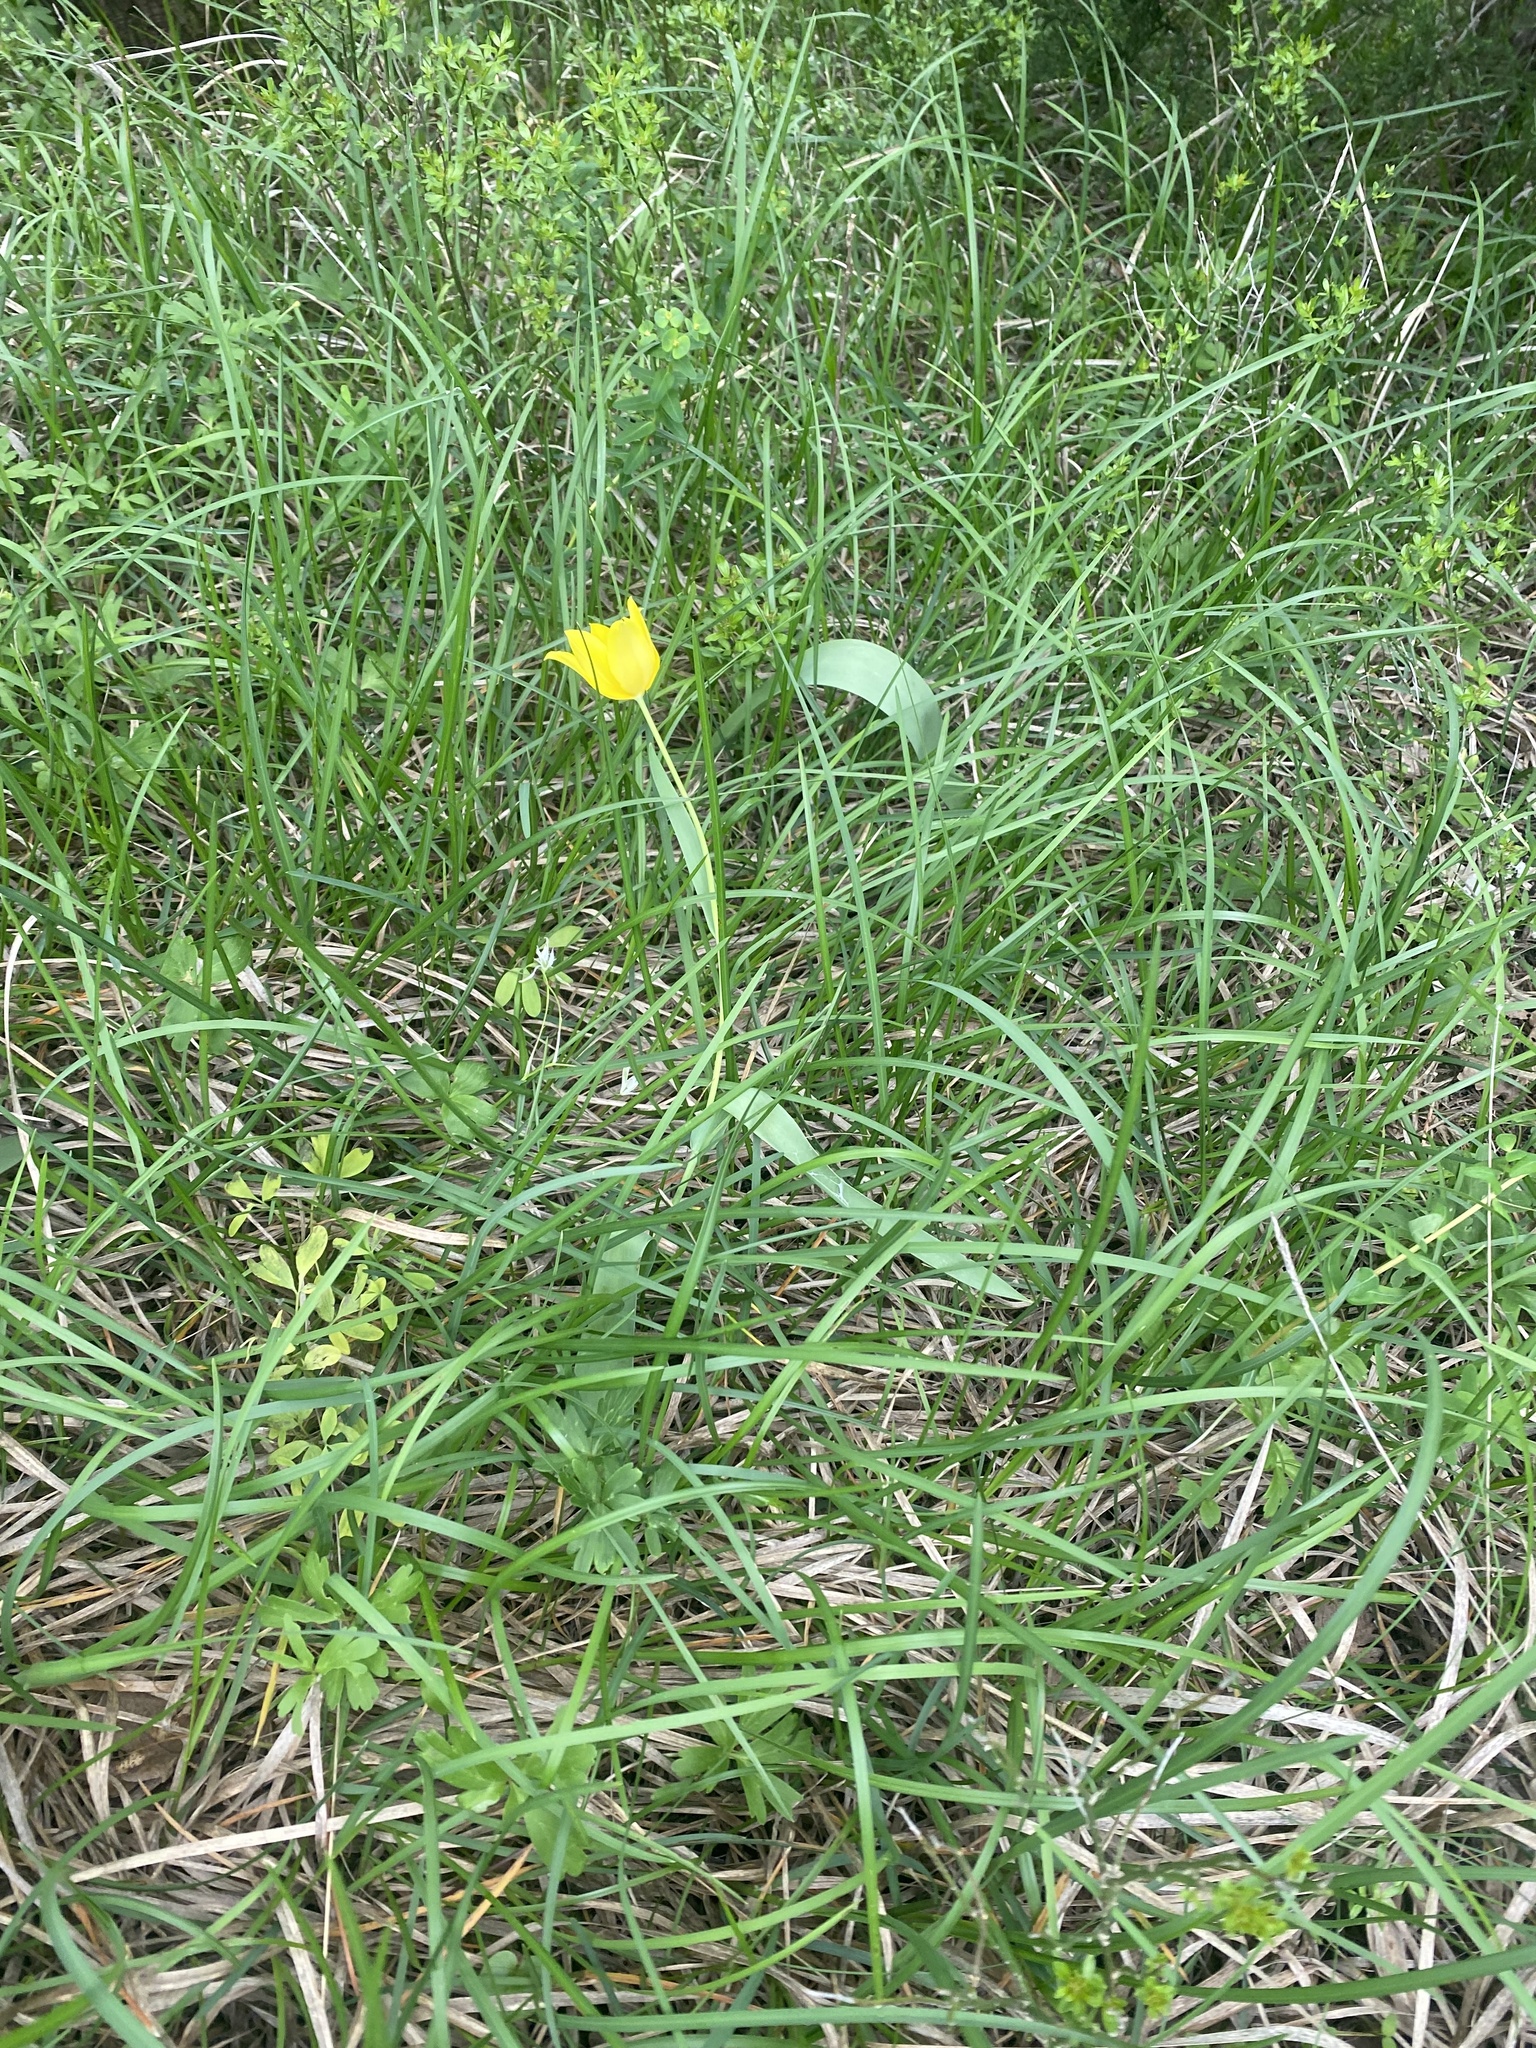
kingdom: Plantae
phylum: Tracheophyta
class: Liliopsida
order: Liliales
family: Liliaceae
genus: Tulipa
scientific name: Tulipa suaveolens
